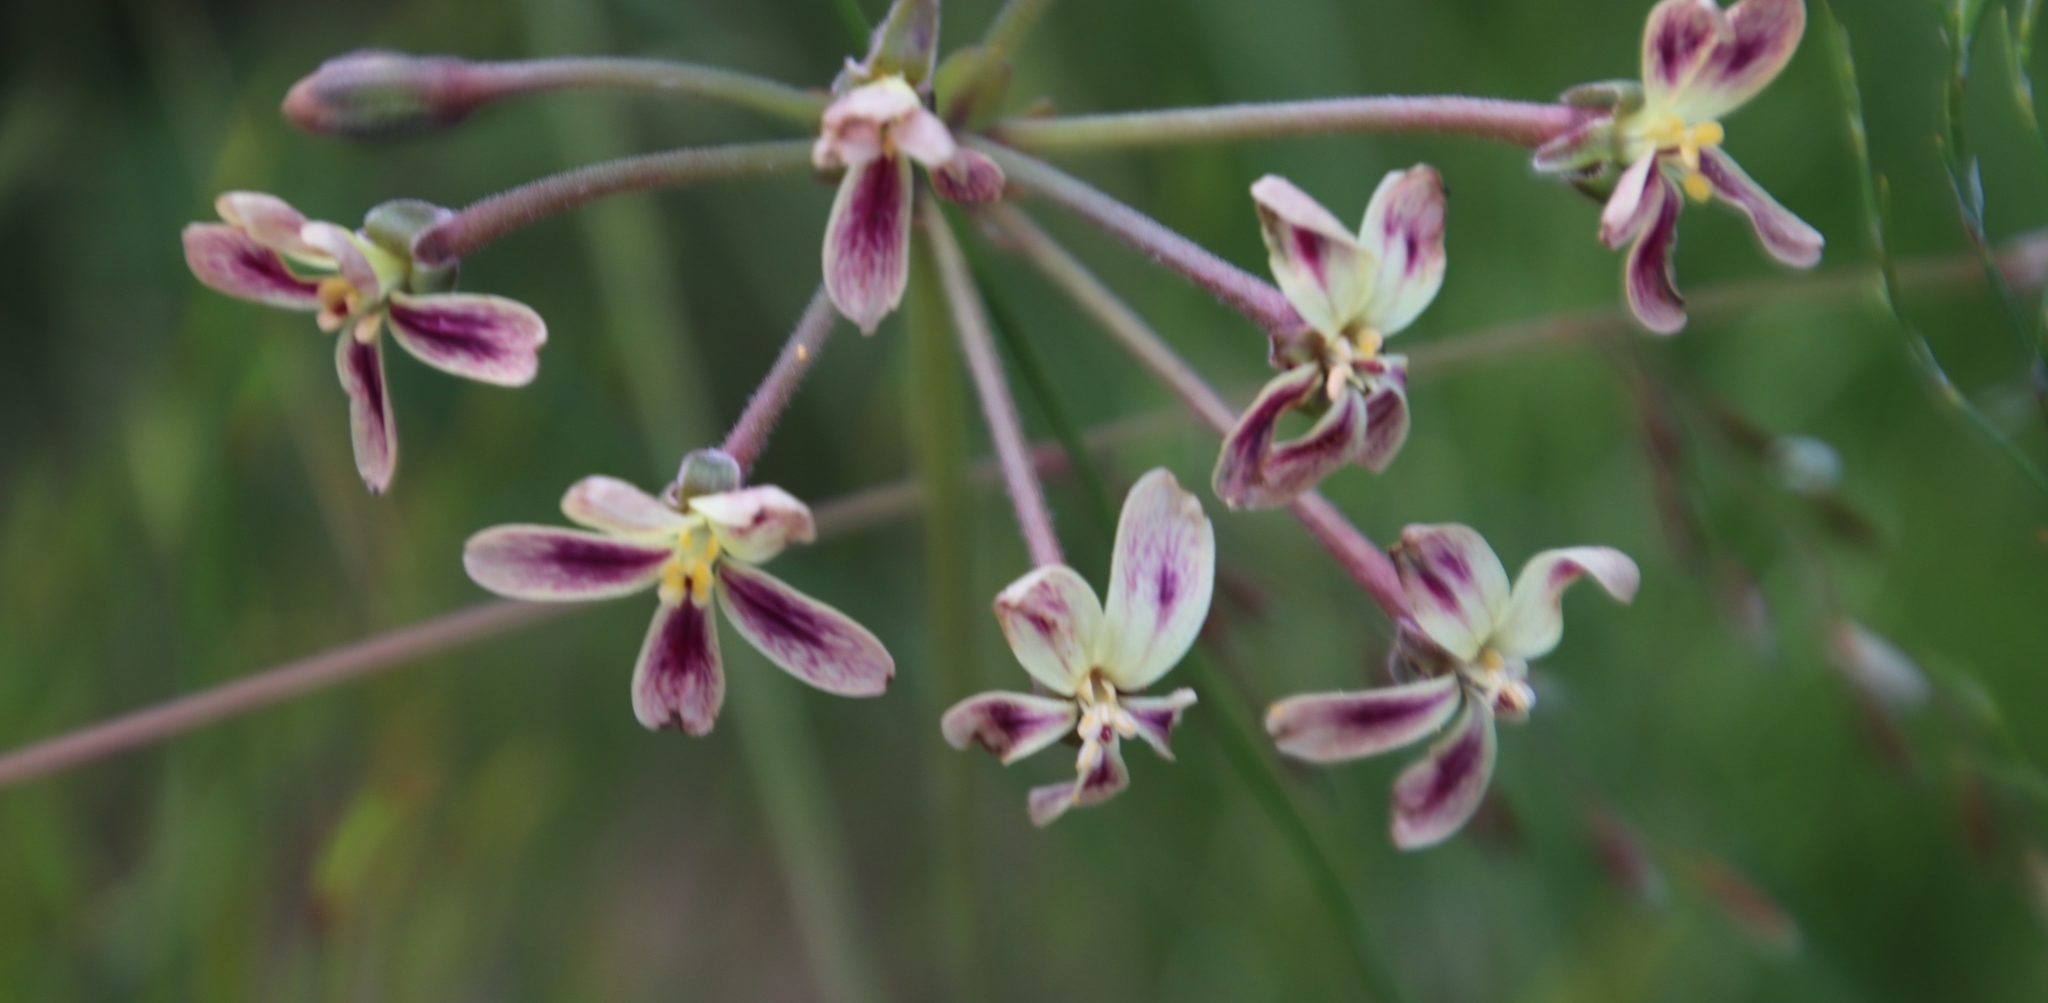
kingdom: Plantae
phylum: Tracheophyta
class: Magnoliopsida
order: Geraniales
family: Geraniaceae
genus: Pelargonium
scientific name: Pelargonium triste
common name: Night-scent pelargonium
